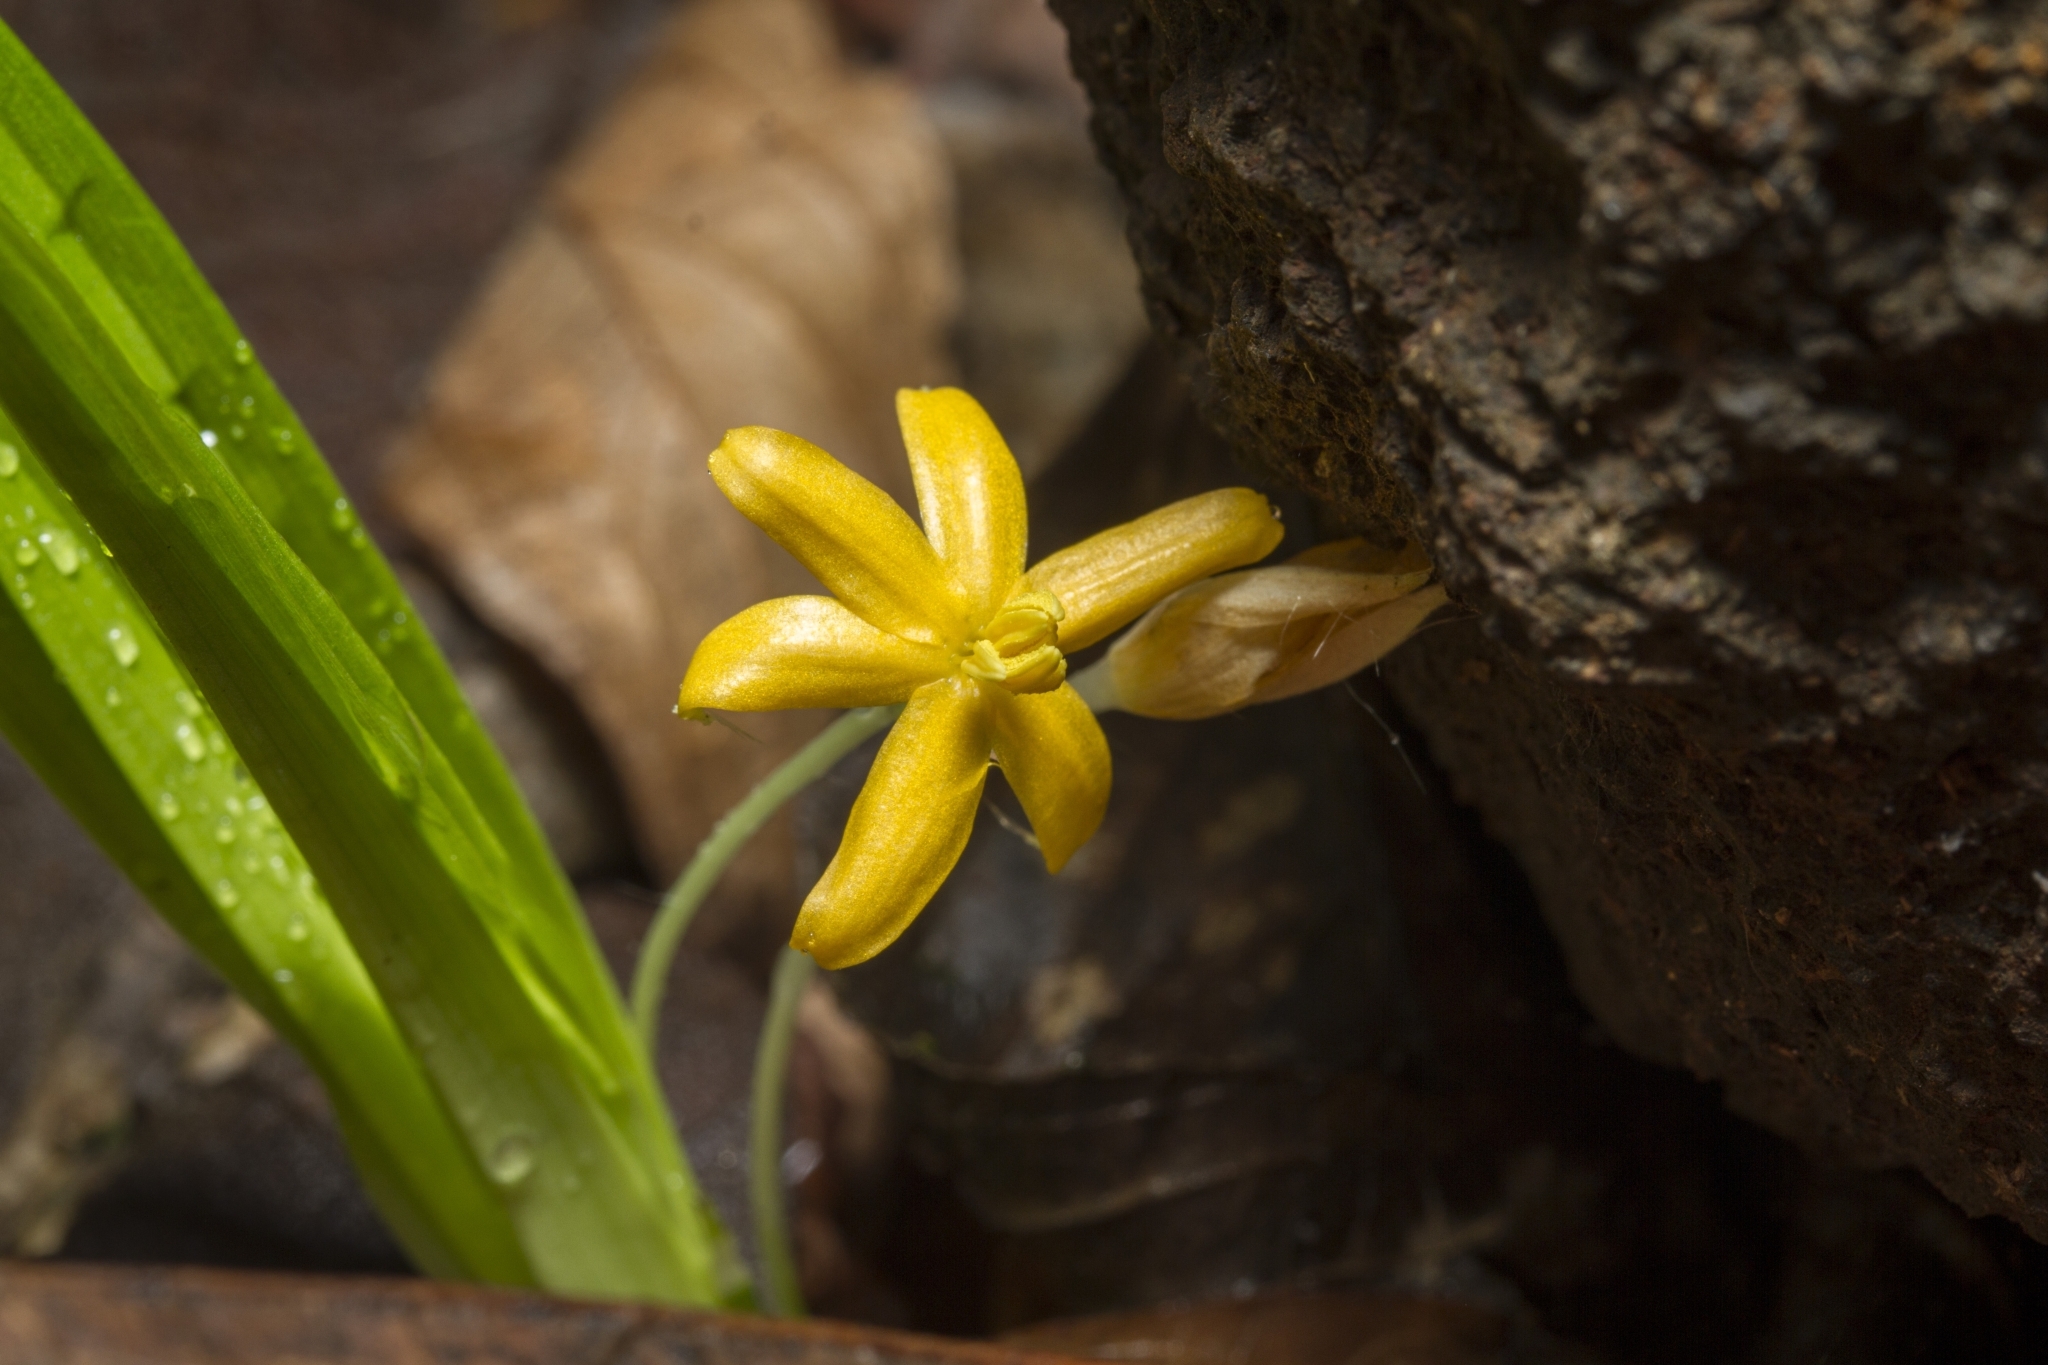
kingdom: Plantae
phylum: Tracheophyta
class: Liliopsida
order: Asparagales
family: Hypoxidaceae
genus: Curculigo
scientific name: Curculigo orchioides
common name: Golden eye-grass
